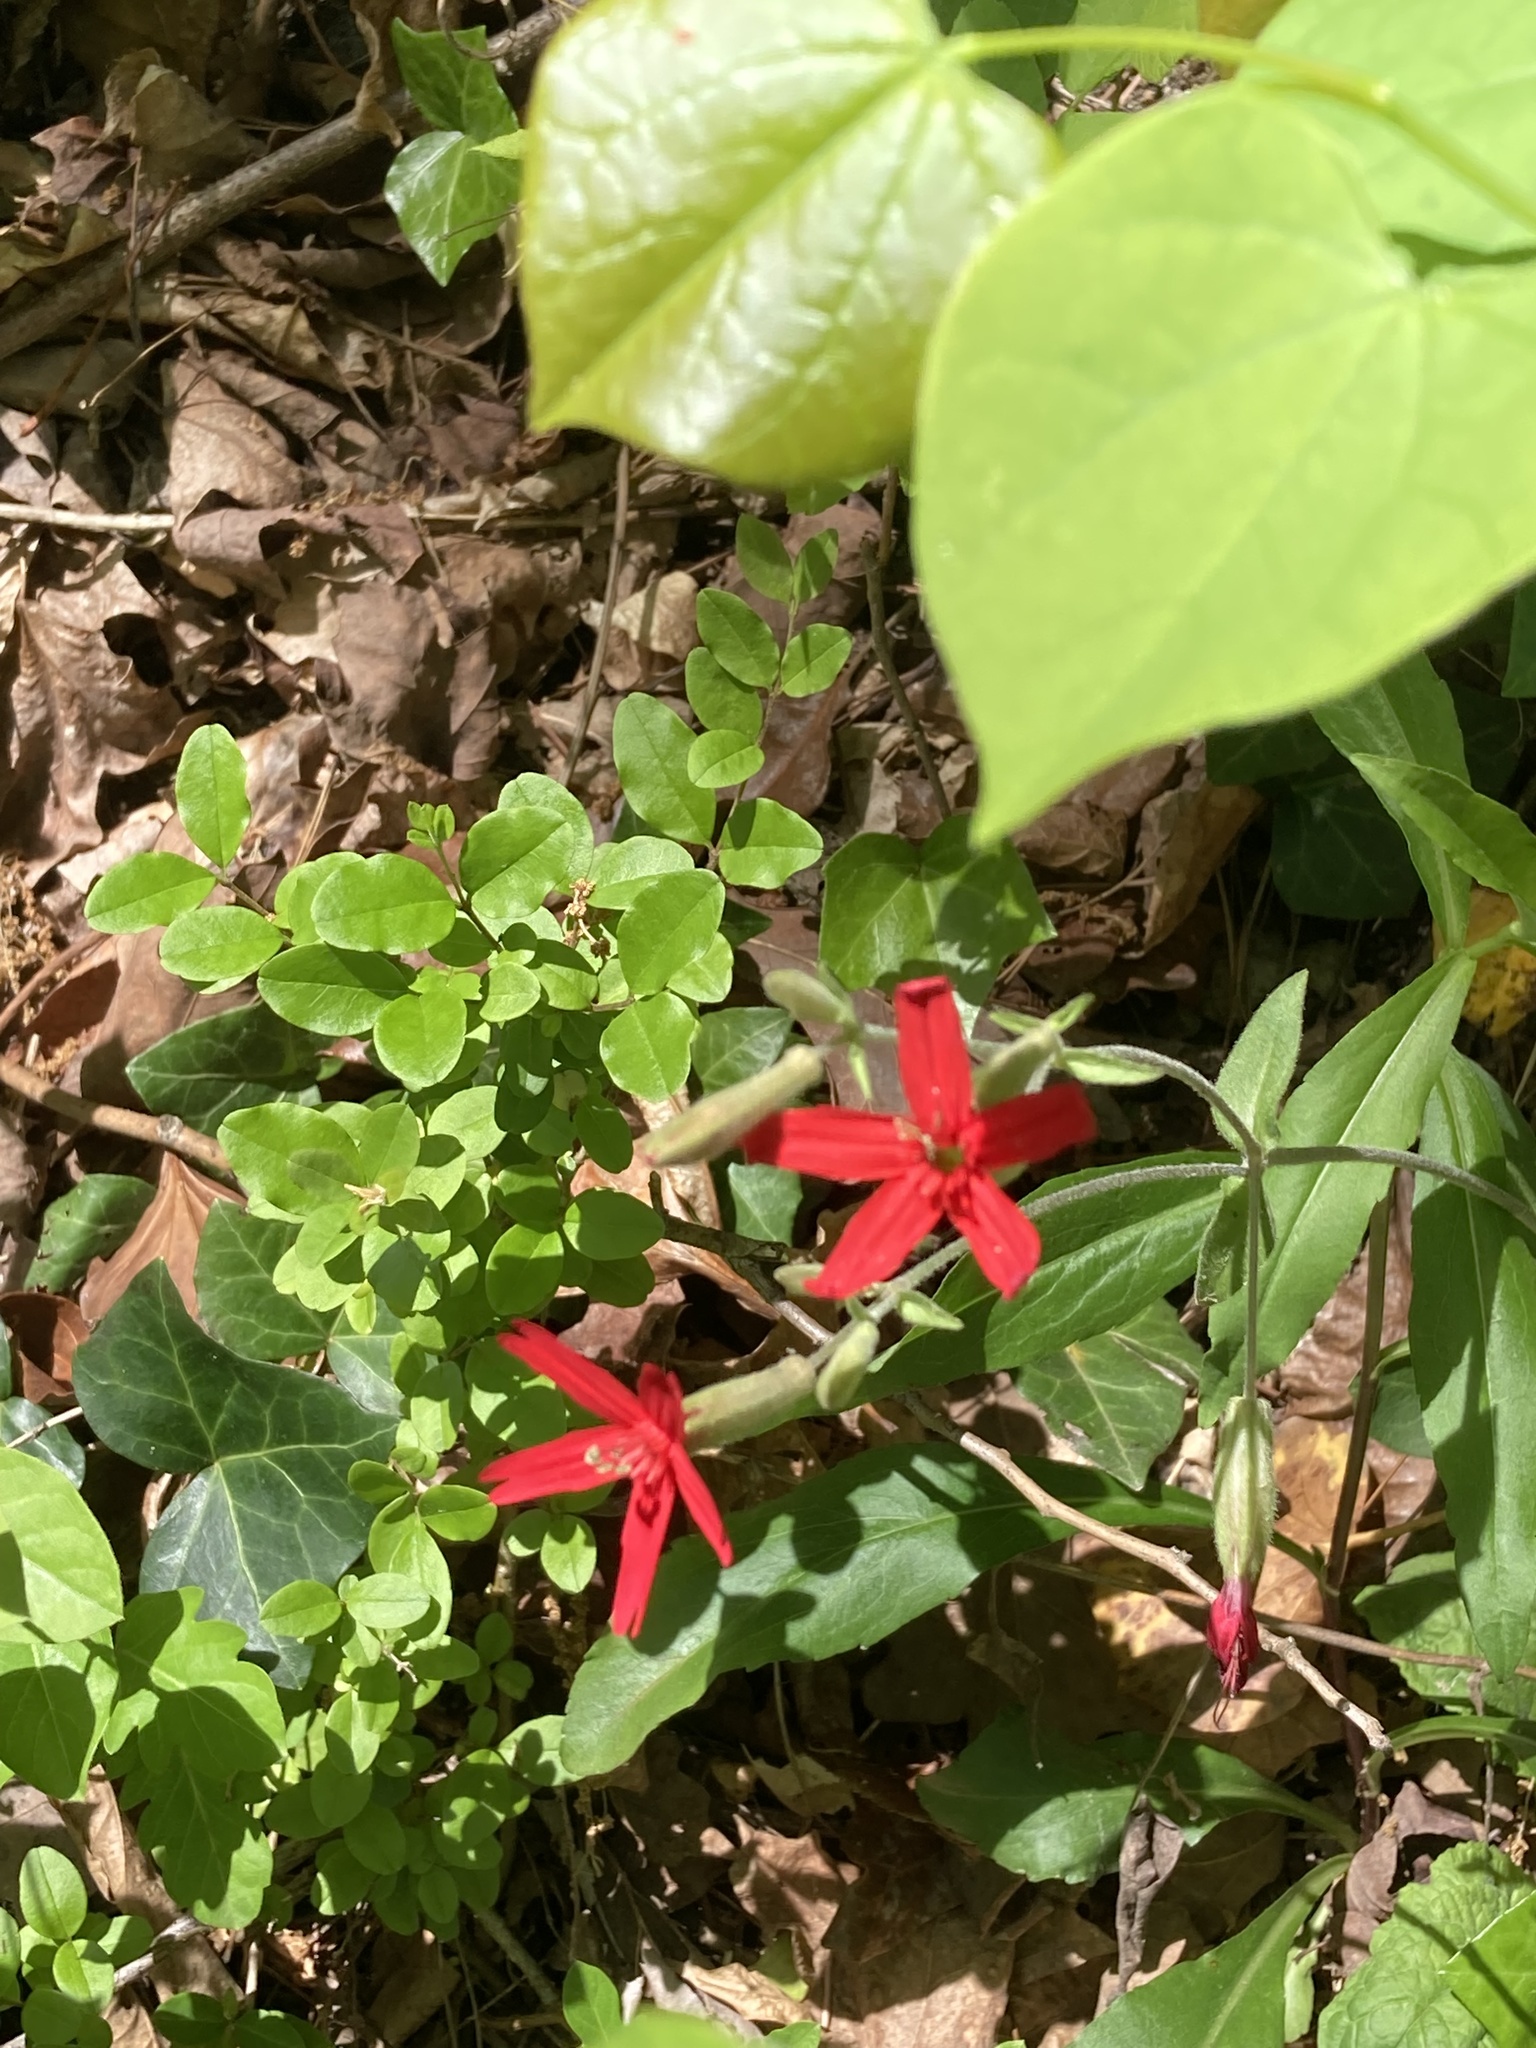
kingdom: Plantae
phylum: Tracheophyta
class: Magnoliopsida
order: Caryophyllales
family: Caryophyllaceae
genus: Silene
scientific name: Silene virginica
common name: Fire-pink
